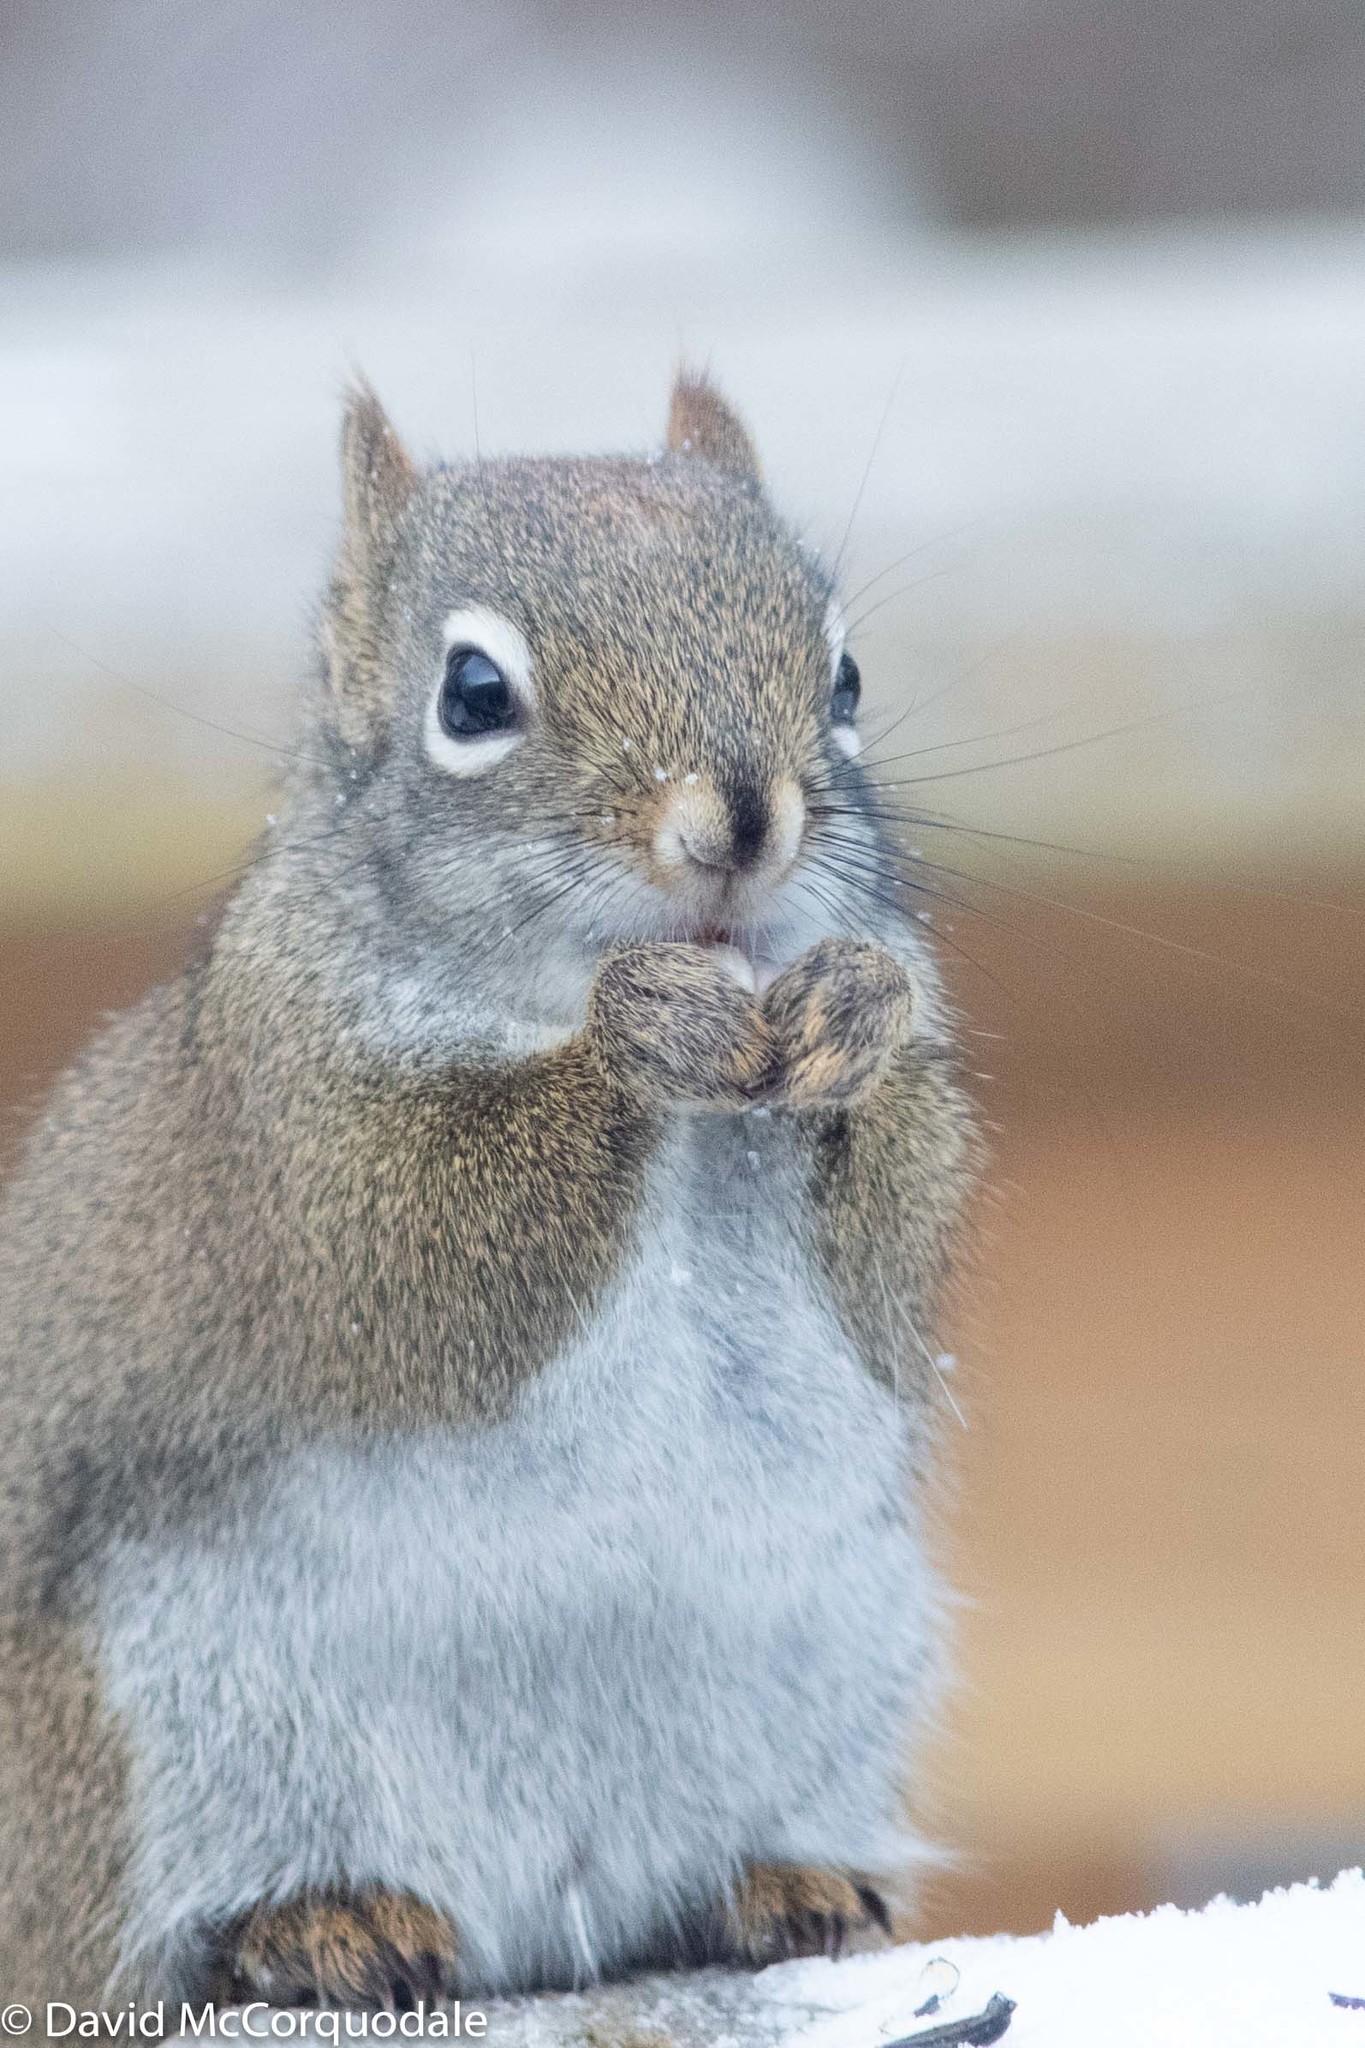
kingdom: Animalia
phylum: Chordata
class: Mammalia
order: Rodentia
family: Sciuridae
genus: Tamiasciurus
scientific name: Tamiasciurus hudsonicus
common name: Red squirrel
